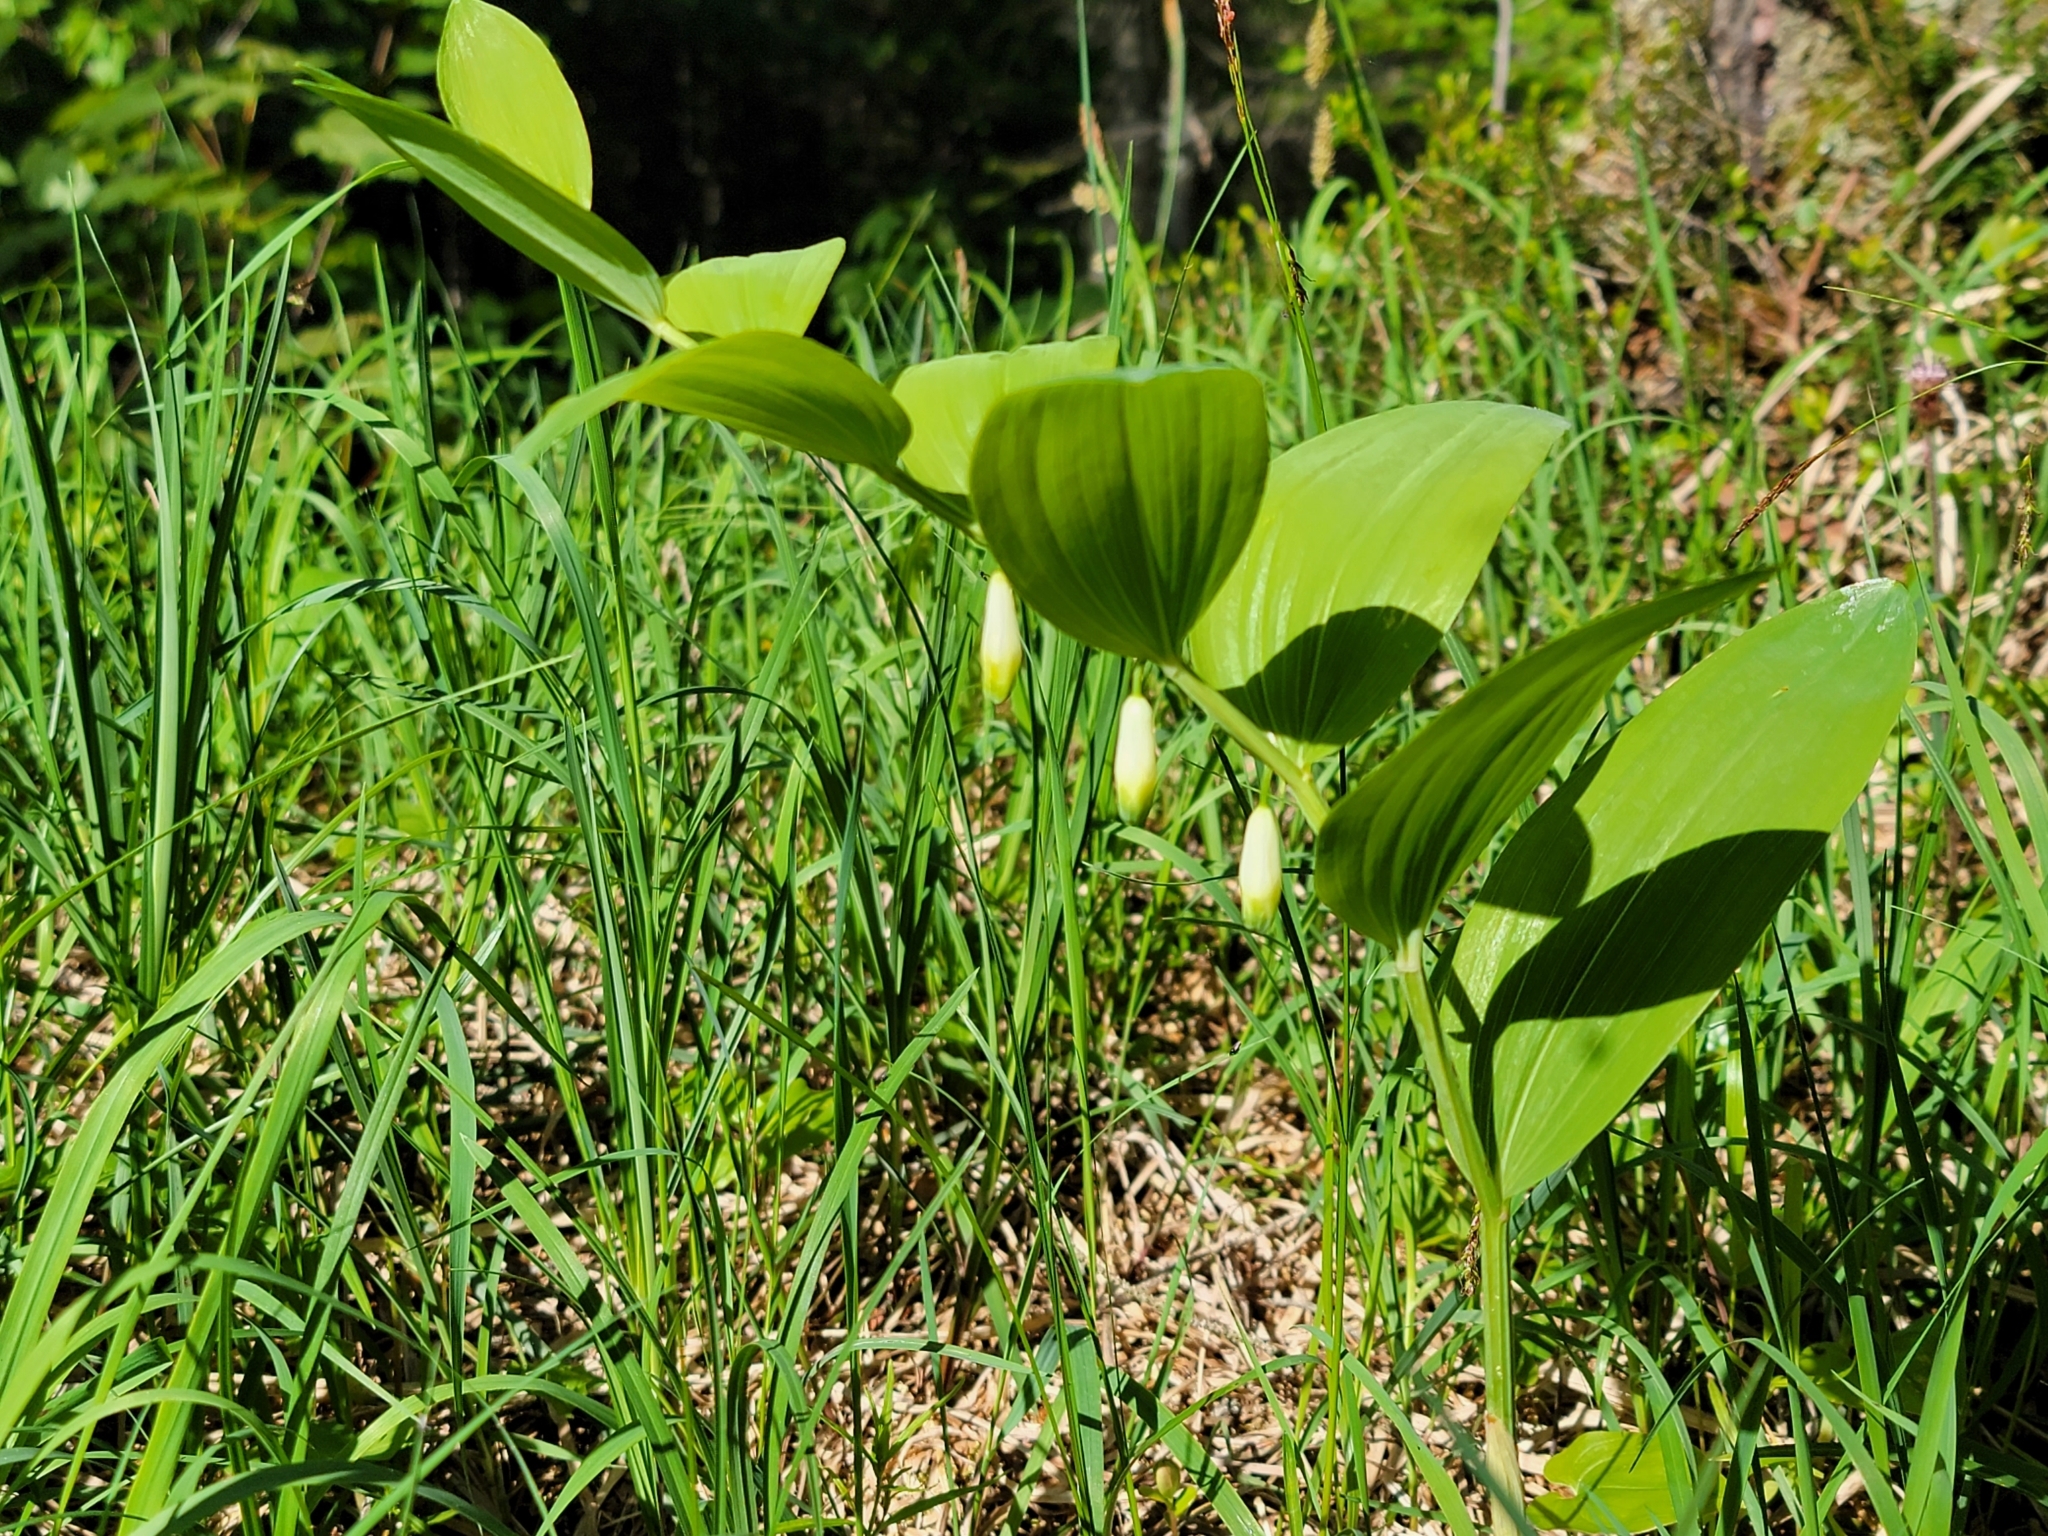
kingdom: Plantae
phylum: Tracheophyta
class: Liliopsida
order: Asparagales
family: Asparagaceae
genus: Polygonatum
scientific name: Polygonatum odoratum
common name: Angular solomon's-seal
